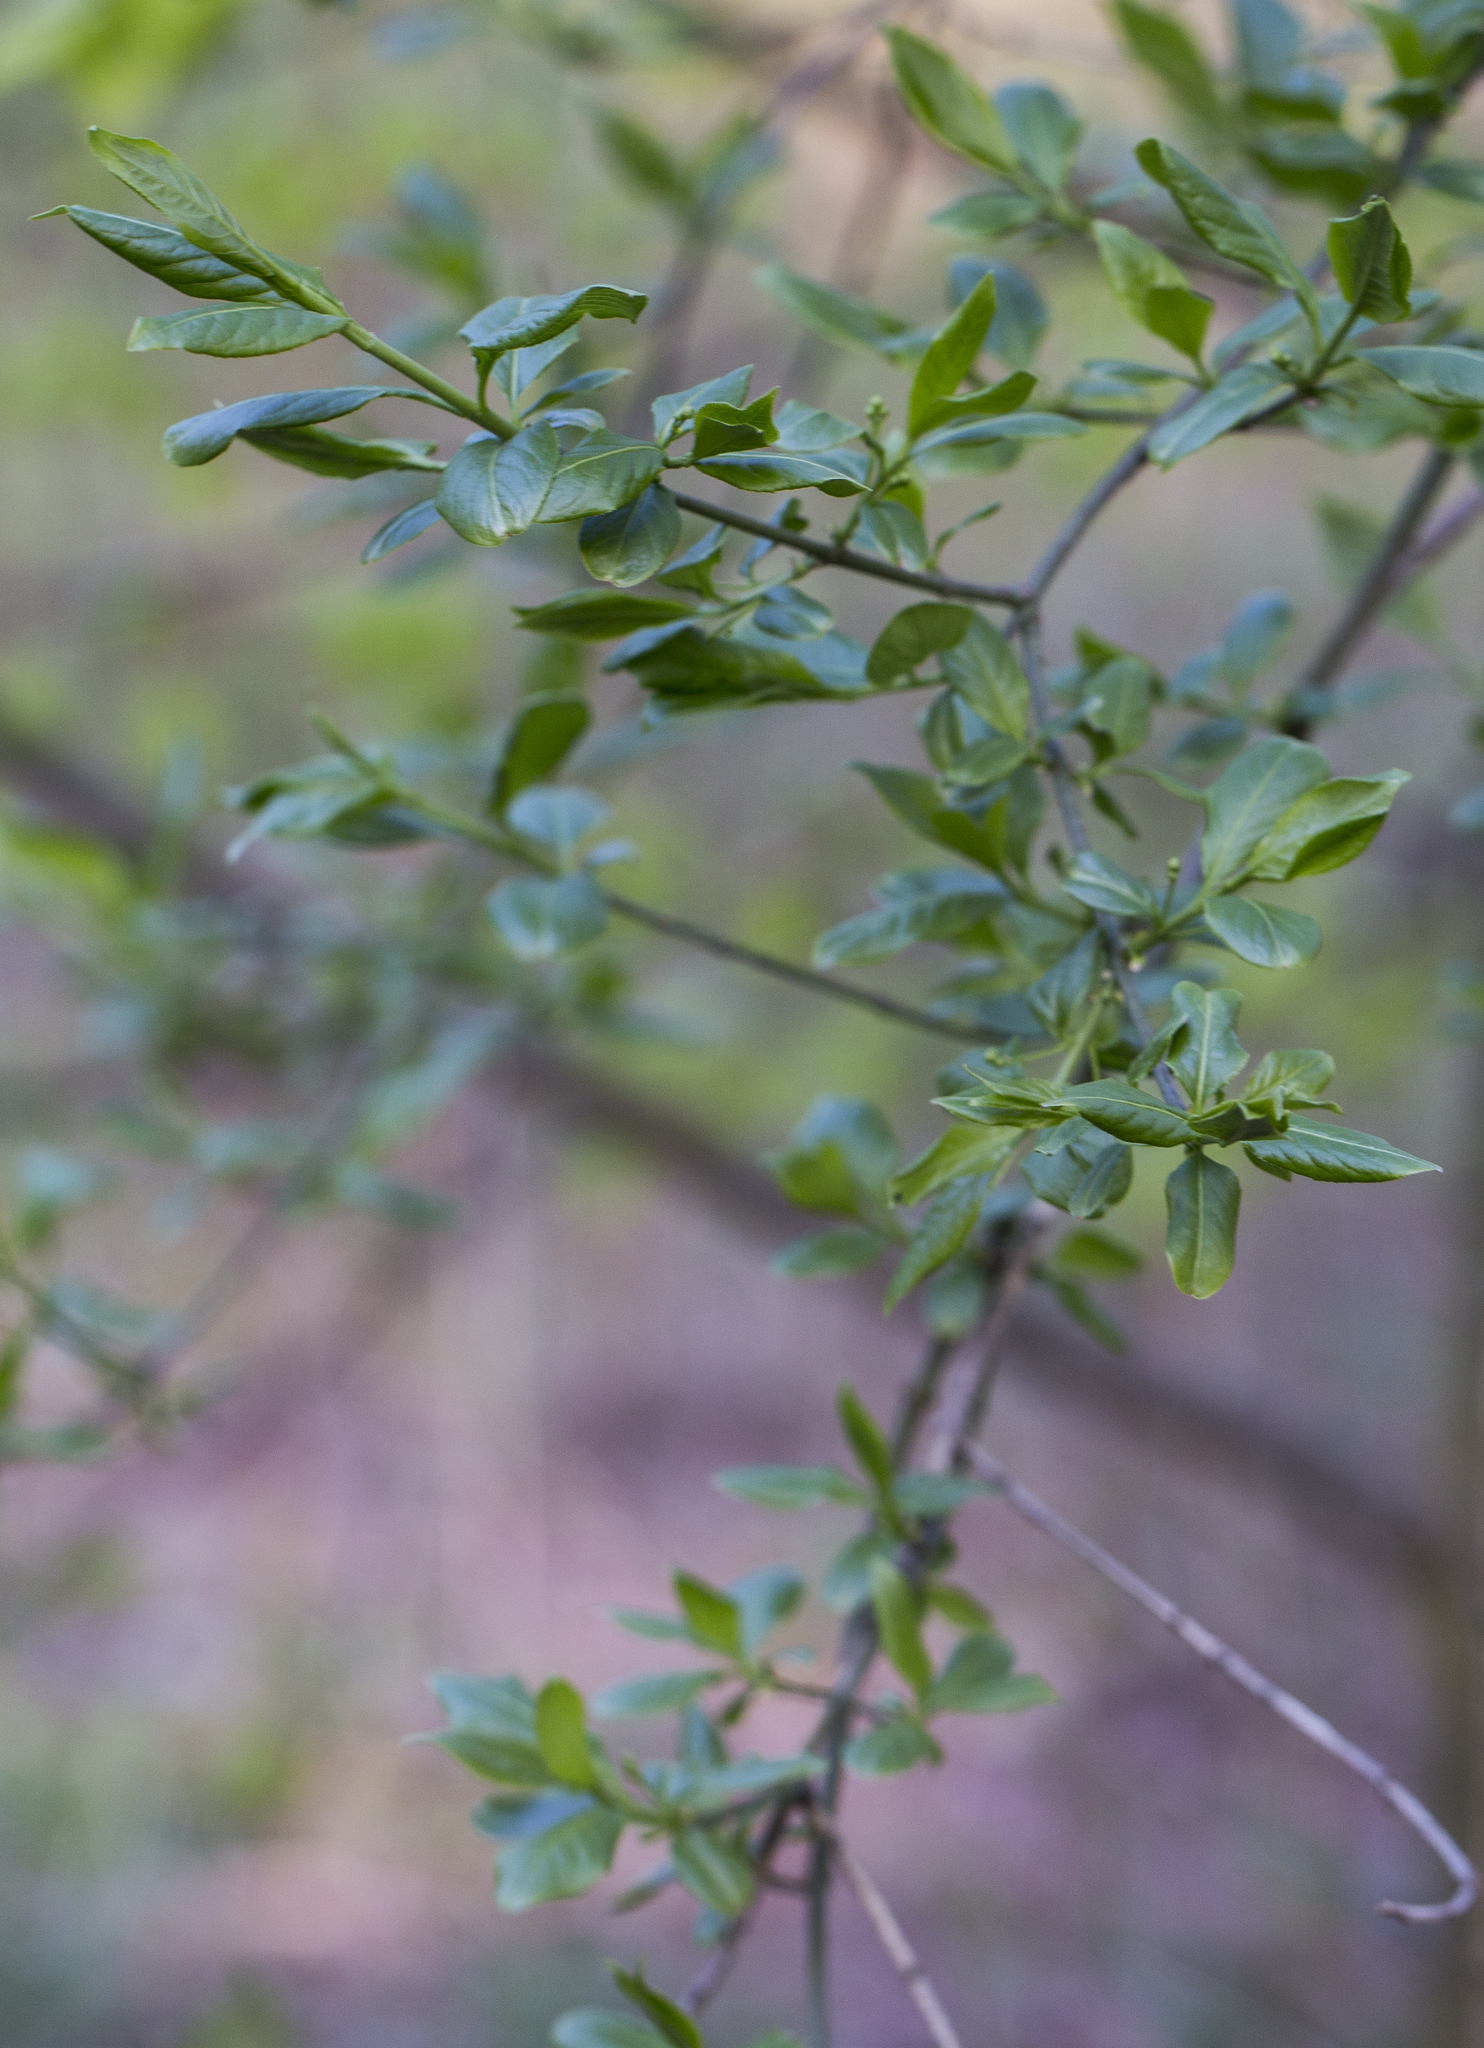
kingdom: Plantae
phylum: Tracheophyta
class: Magnoliopsida
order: Celastrales
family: Celastraceae
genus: Euonymus
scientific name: Euonymus europaeus
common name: Spindle
